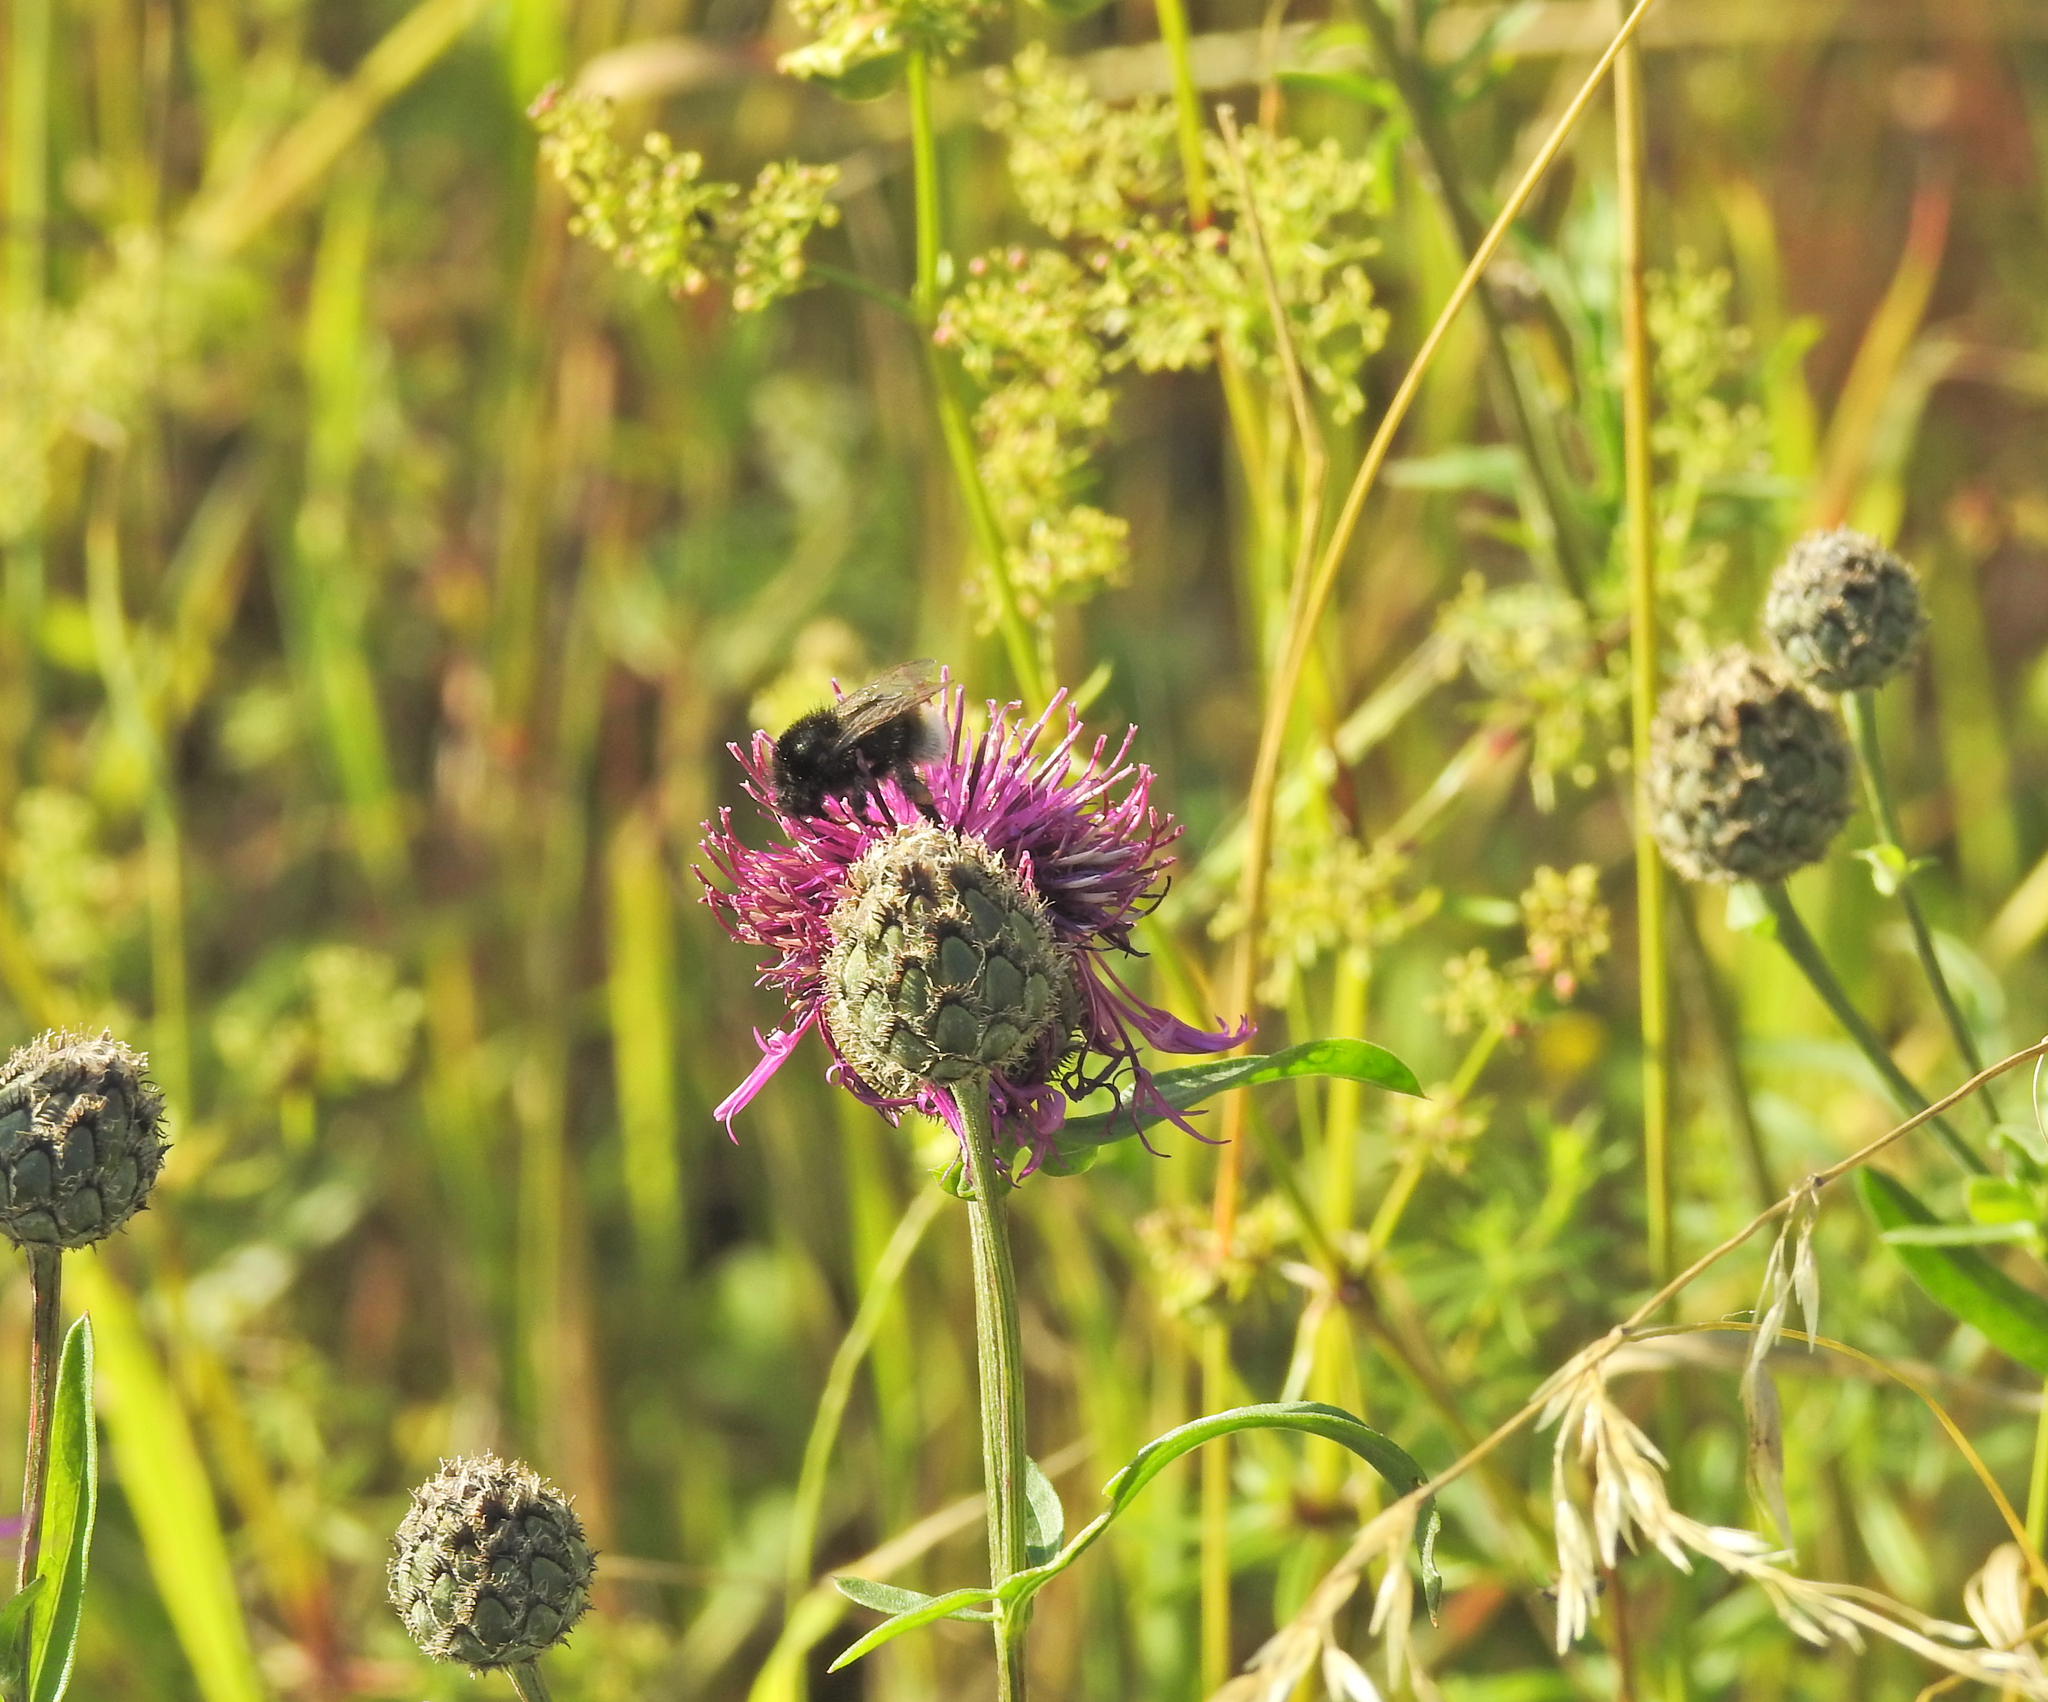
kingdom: Plantae
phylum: Tracheophyta
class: Magnoliopsida
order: Asterales
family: Asteraceae
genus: Centaurea
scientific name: Centaurea scabiosa
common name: Greater knapweed
